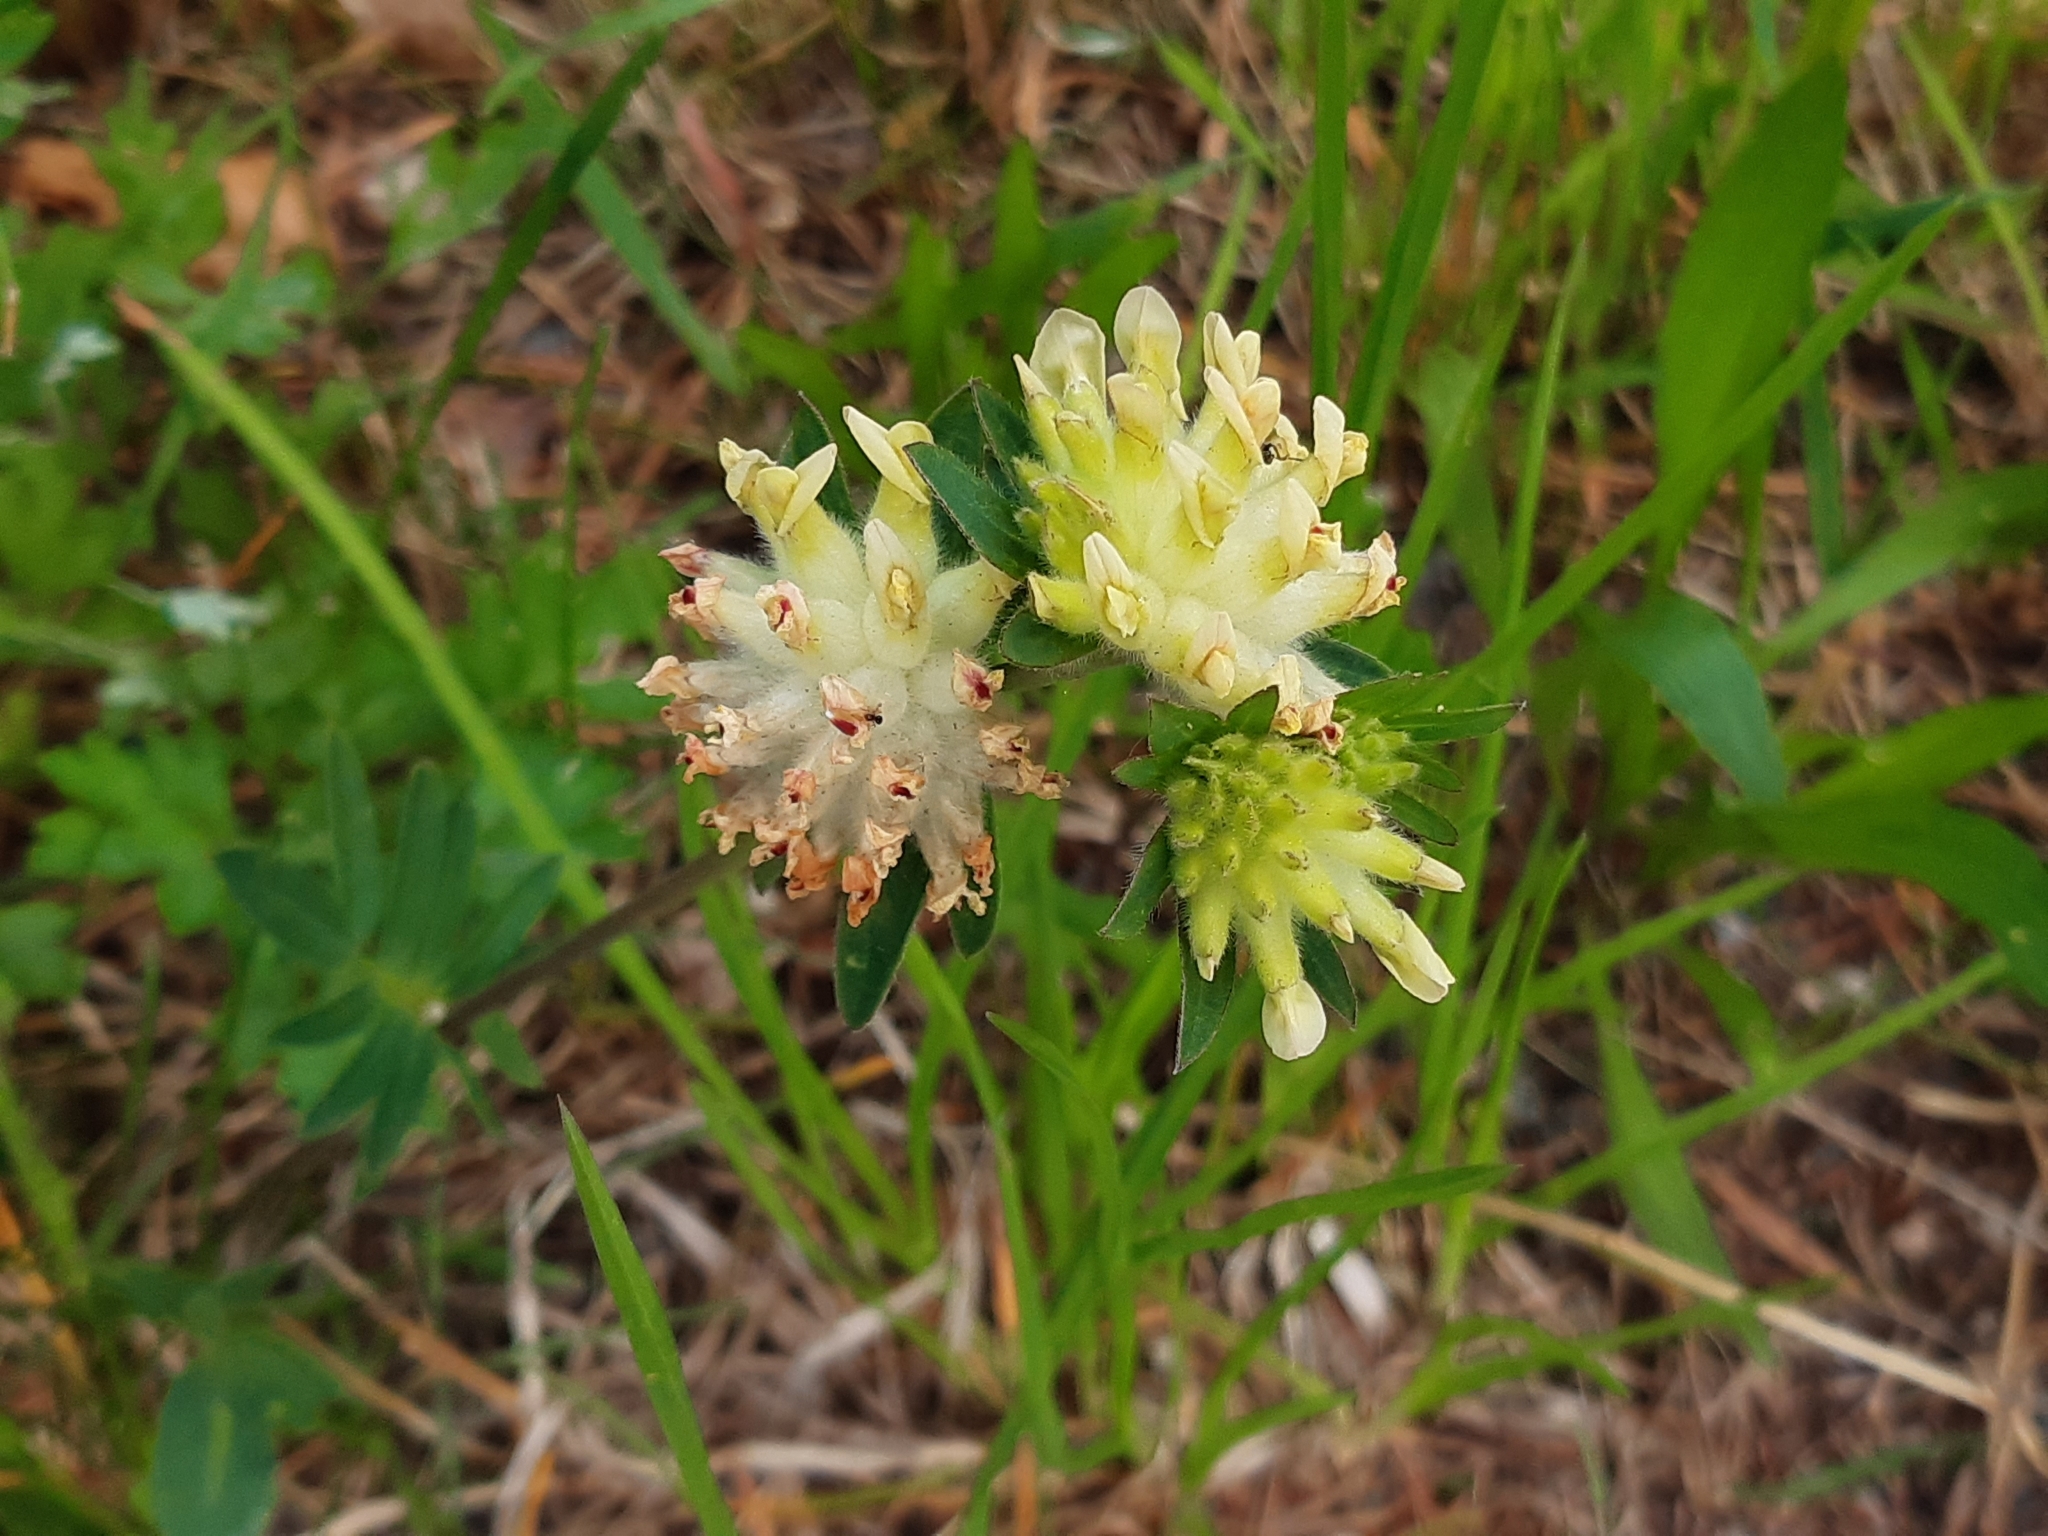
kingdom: Plantae
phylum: Tracheophyta
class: Magnoliopsida
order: Fabales
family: Fabaceae
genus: Anthyllis
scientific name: Anthyllis vulneraria
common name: Kidney vetch
